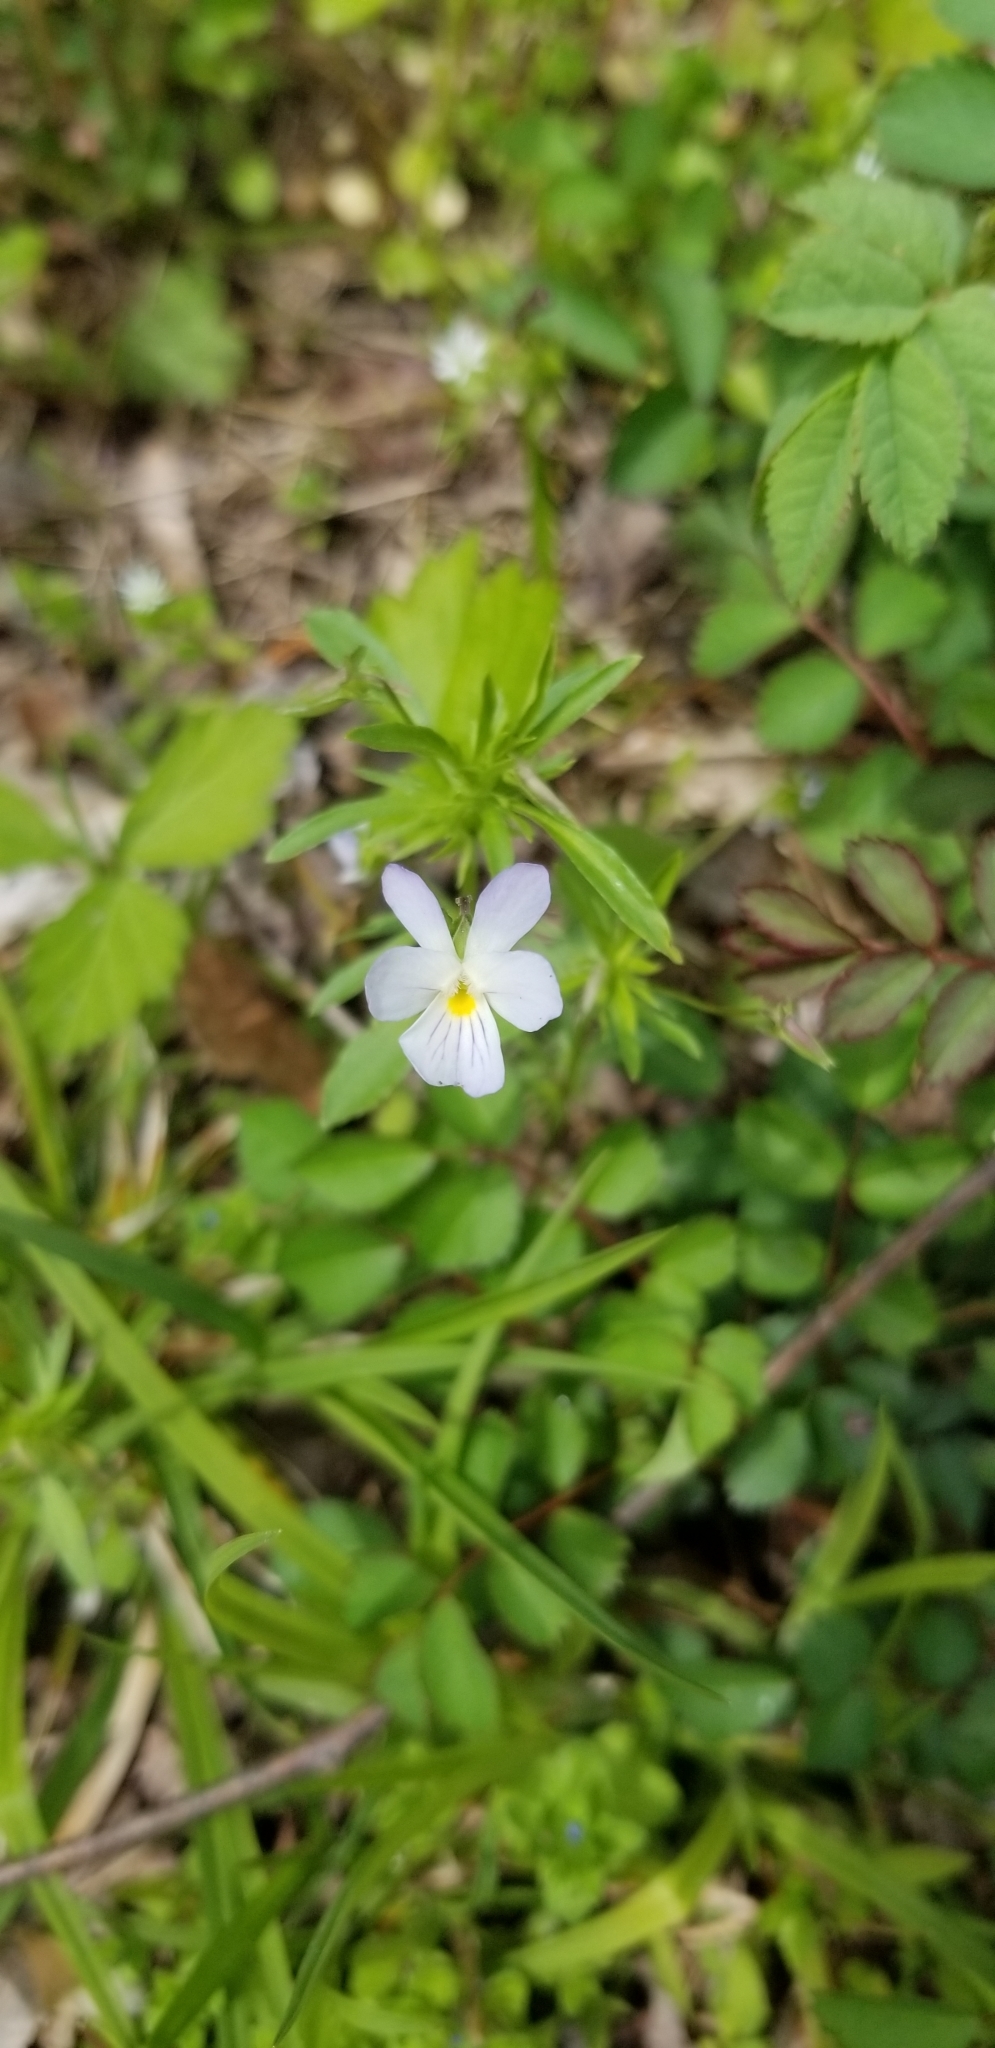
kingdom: Plantae
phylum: Tracheophyta
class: Magnoliopsida
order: Malpighiales
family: Violaceae
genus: Viola
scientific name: Viola rafinesquei
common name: American field pansy
